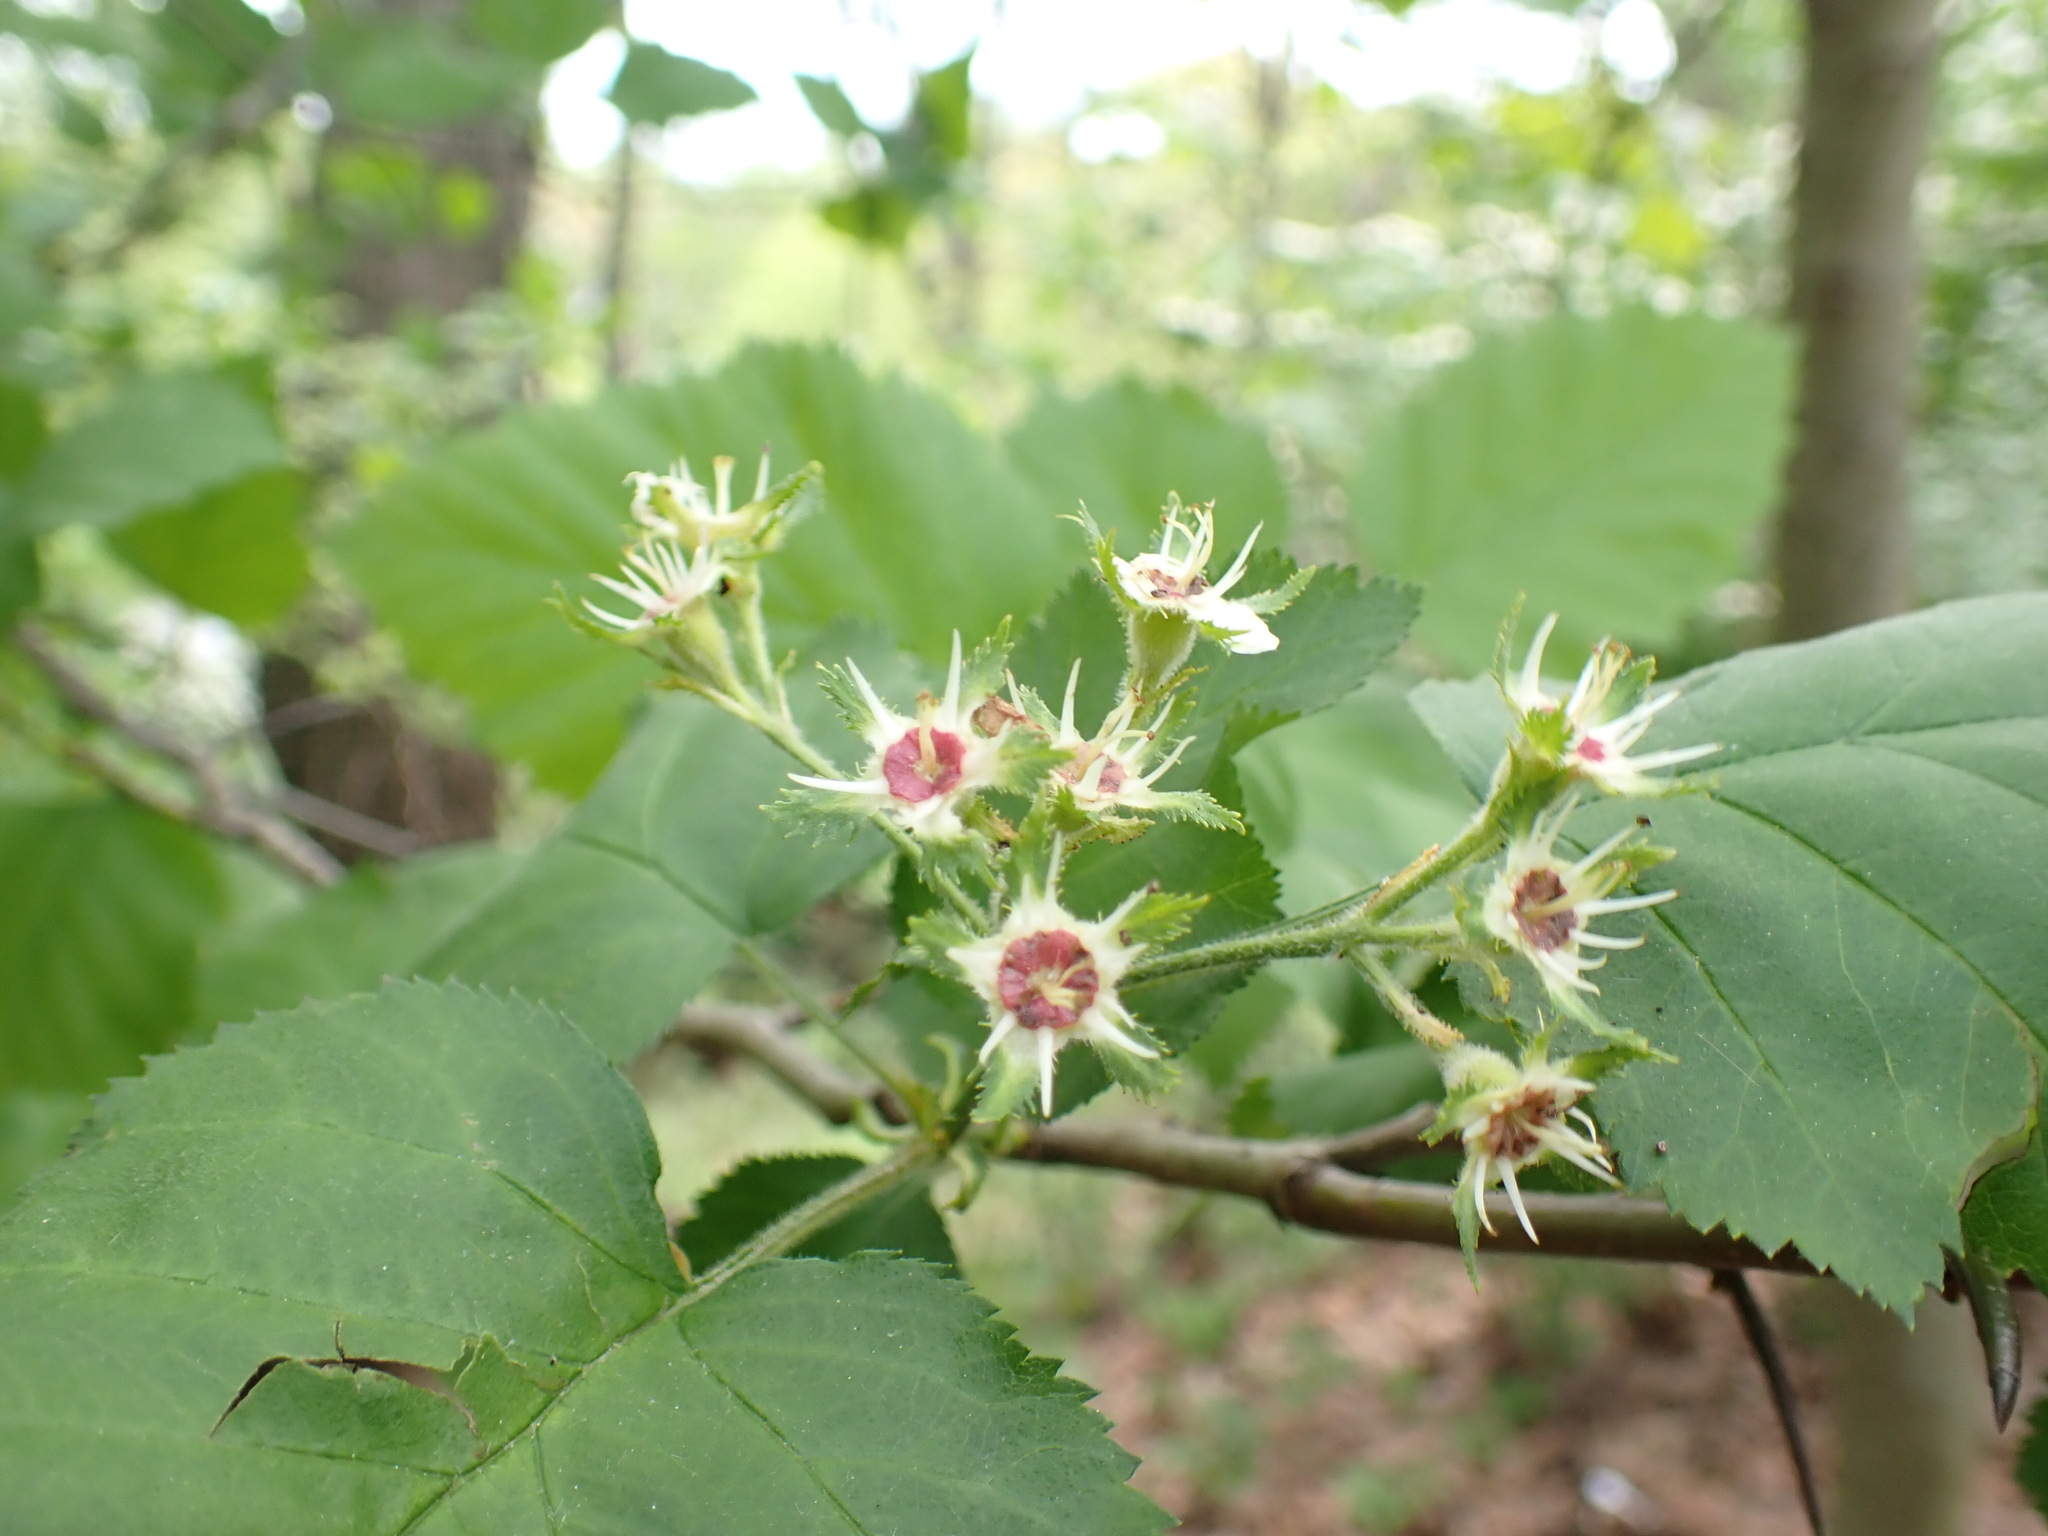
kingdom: Plantae
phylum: Tracheophyta
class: Magnoliopsida
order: Rosales
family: Rosaceae
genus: Crataegus
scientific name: Crataegus mollis
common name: Downy hawthorn
